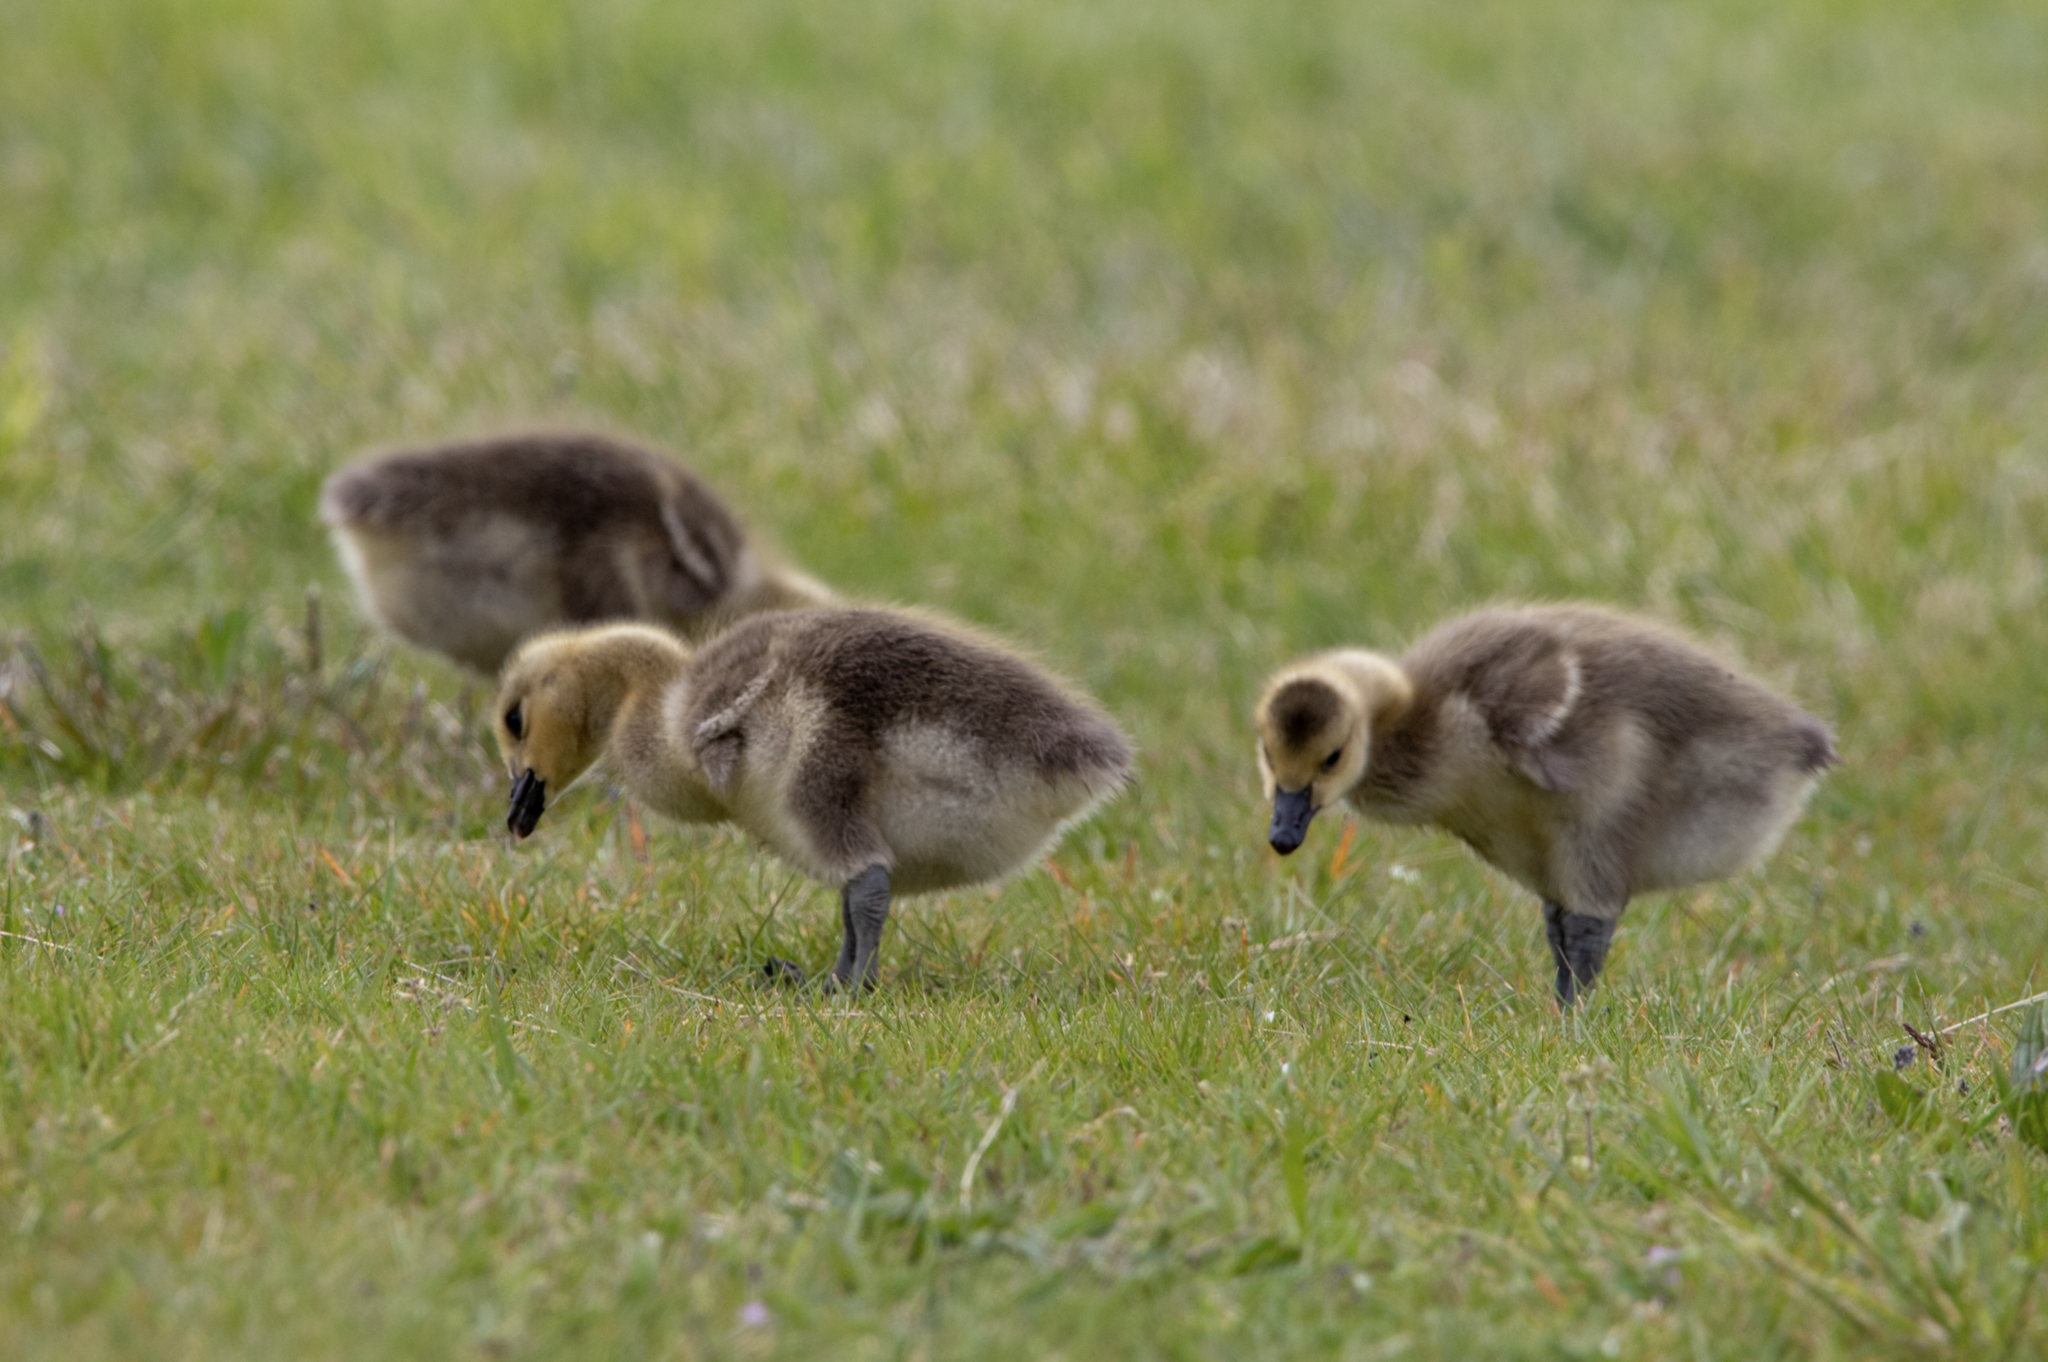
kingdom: Animalia
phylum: Chordata
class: Aves
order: Anseriformes
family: Anatidae
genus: Branta
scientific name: Branta canadensis
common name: Canada goose
